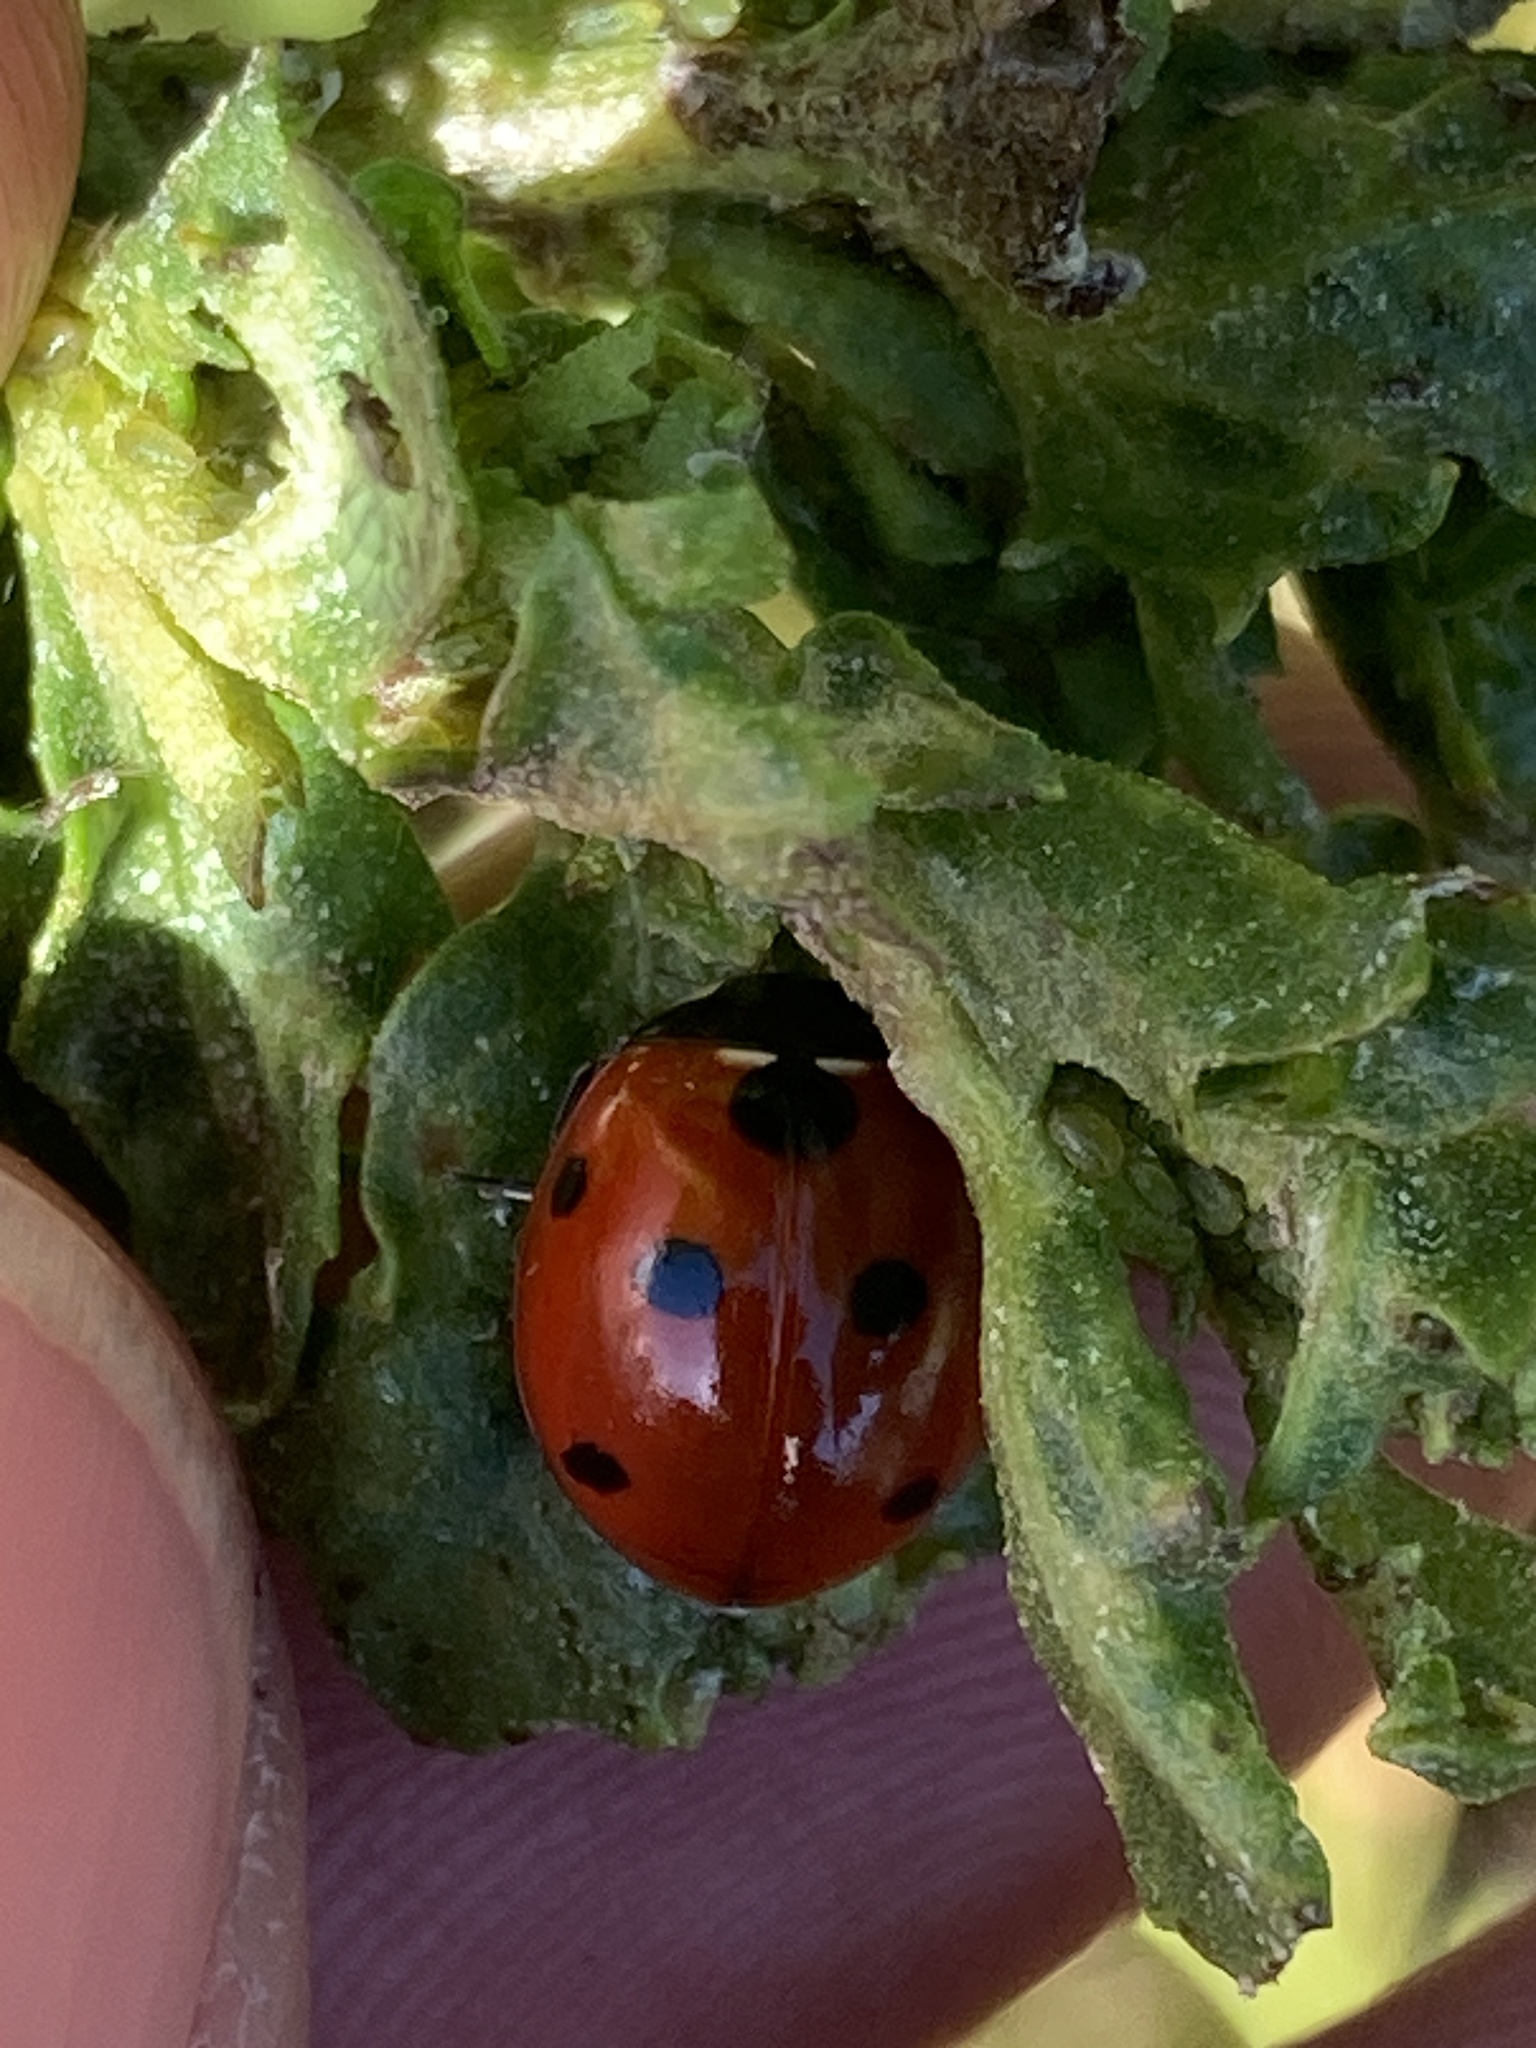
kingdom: Animalia
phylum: Arthropoda
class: Insecta
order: Coleoptera
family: Coccinellidae
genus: Coccinella
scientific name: Coccinella septempunctata
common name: Sevenspotted lady beetle
